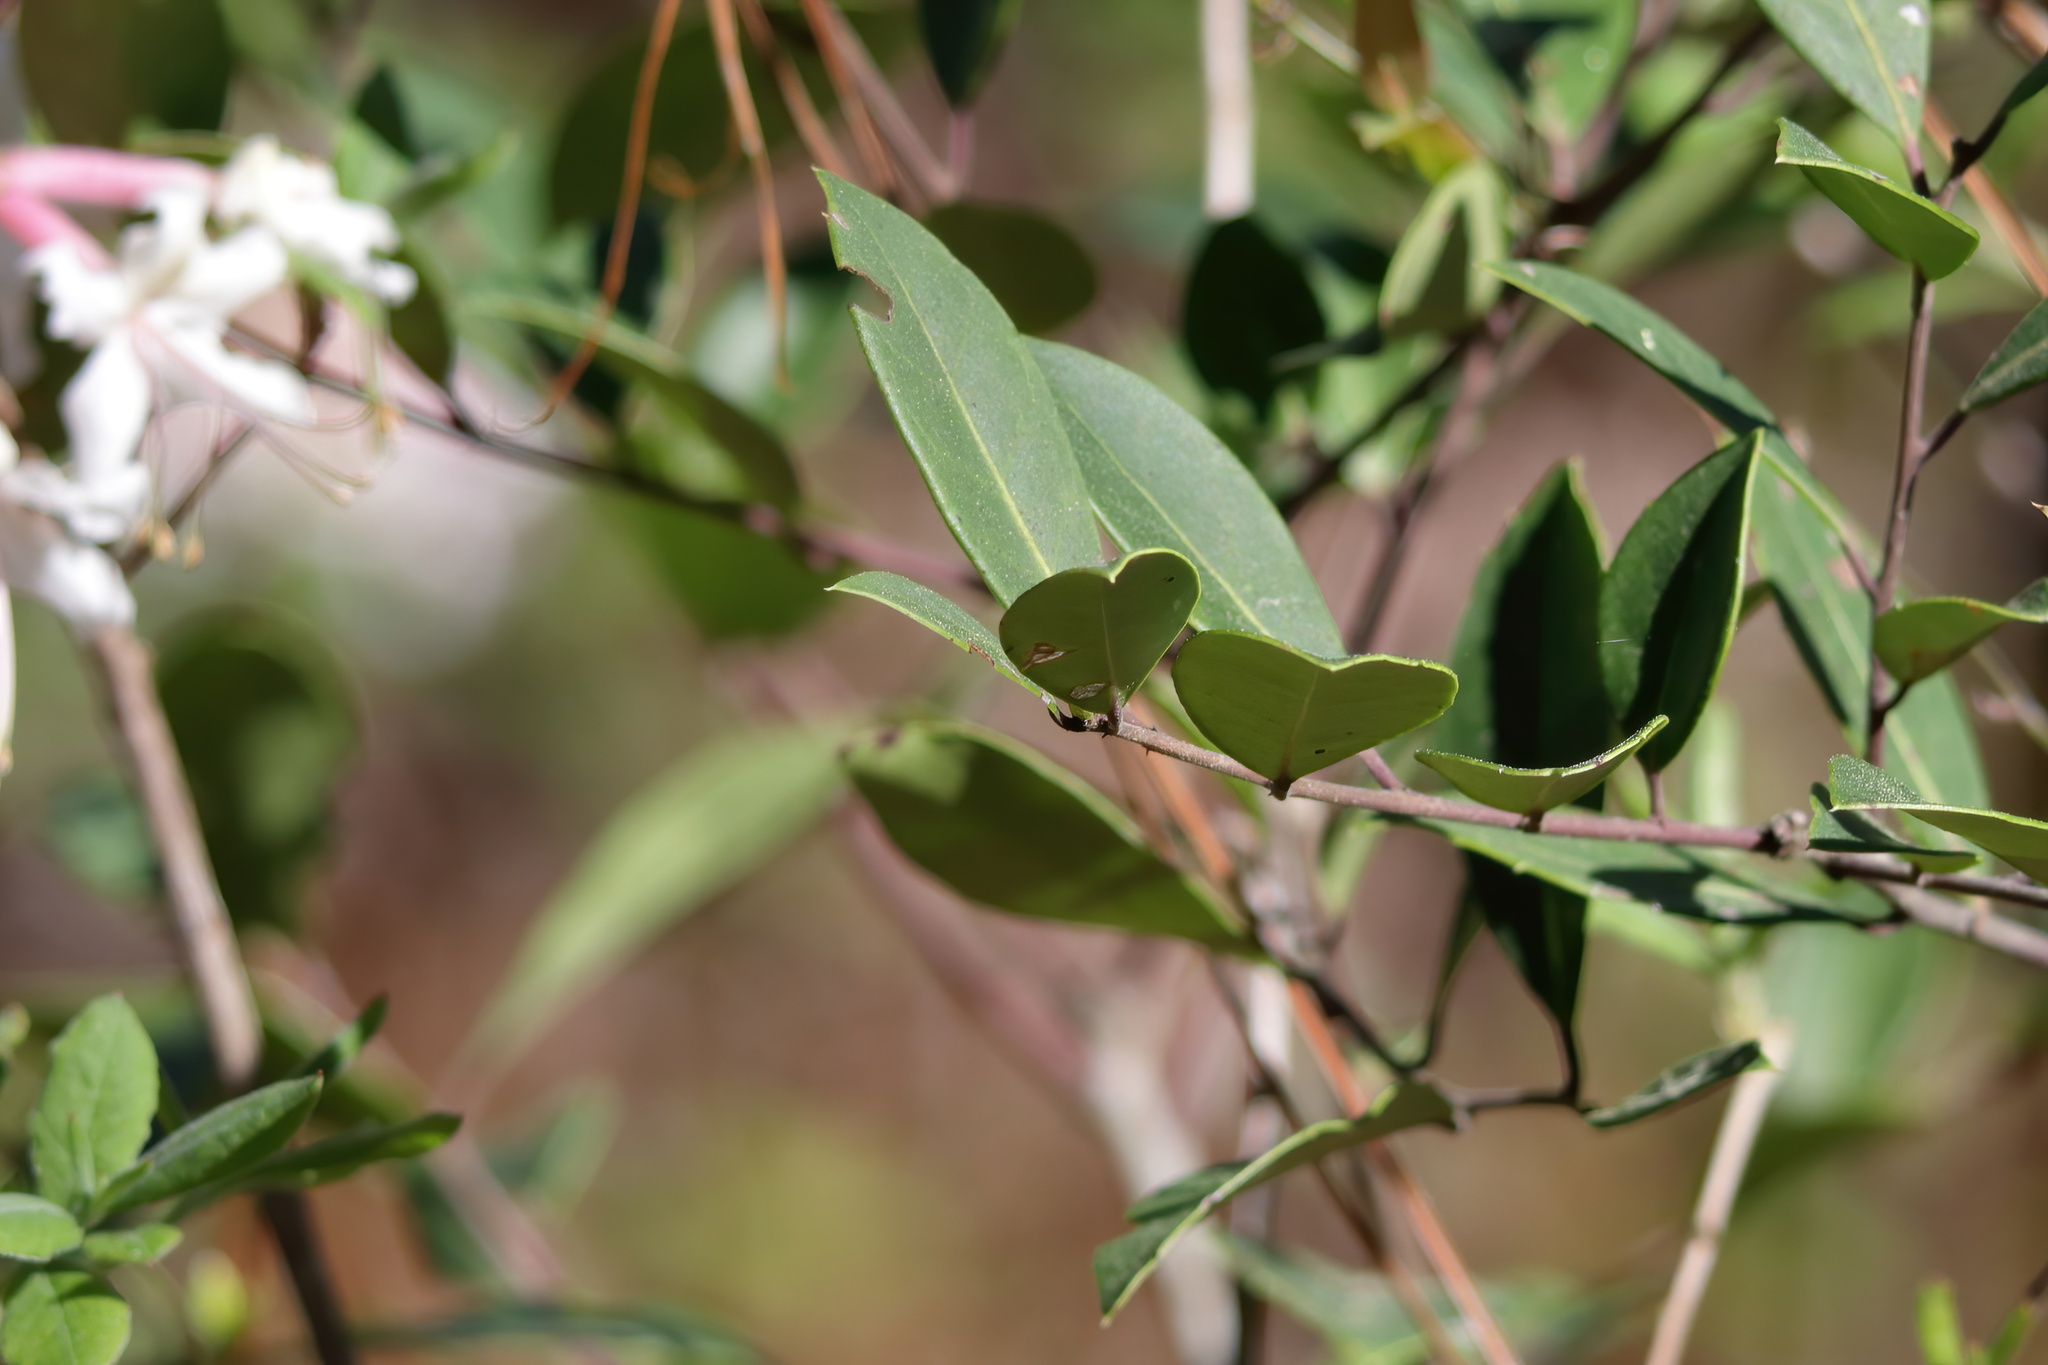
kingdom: Plantae
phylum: Tracheophyta
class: Magnoliopsida
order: Ericales
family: Ericaceae
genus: Rhododendron
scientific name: Rhododendron canescens
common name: Mountain azalea
